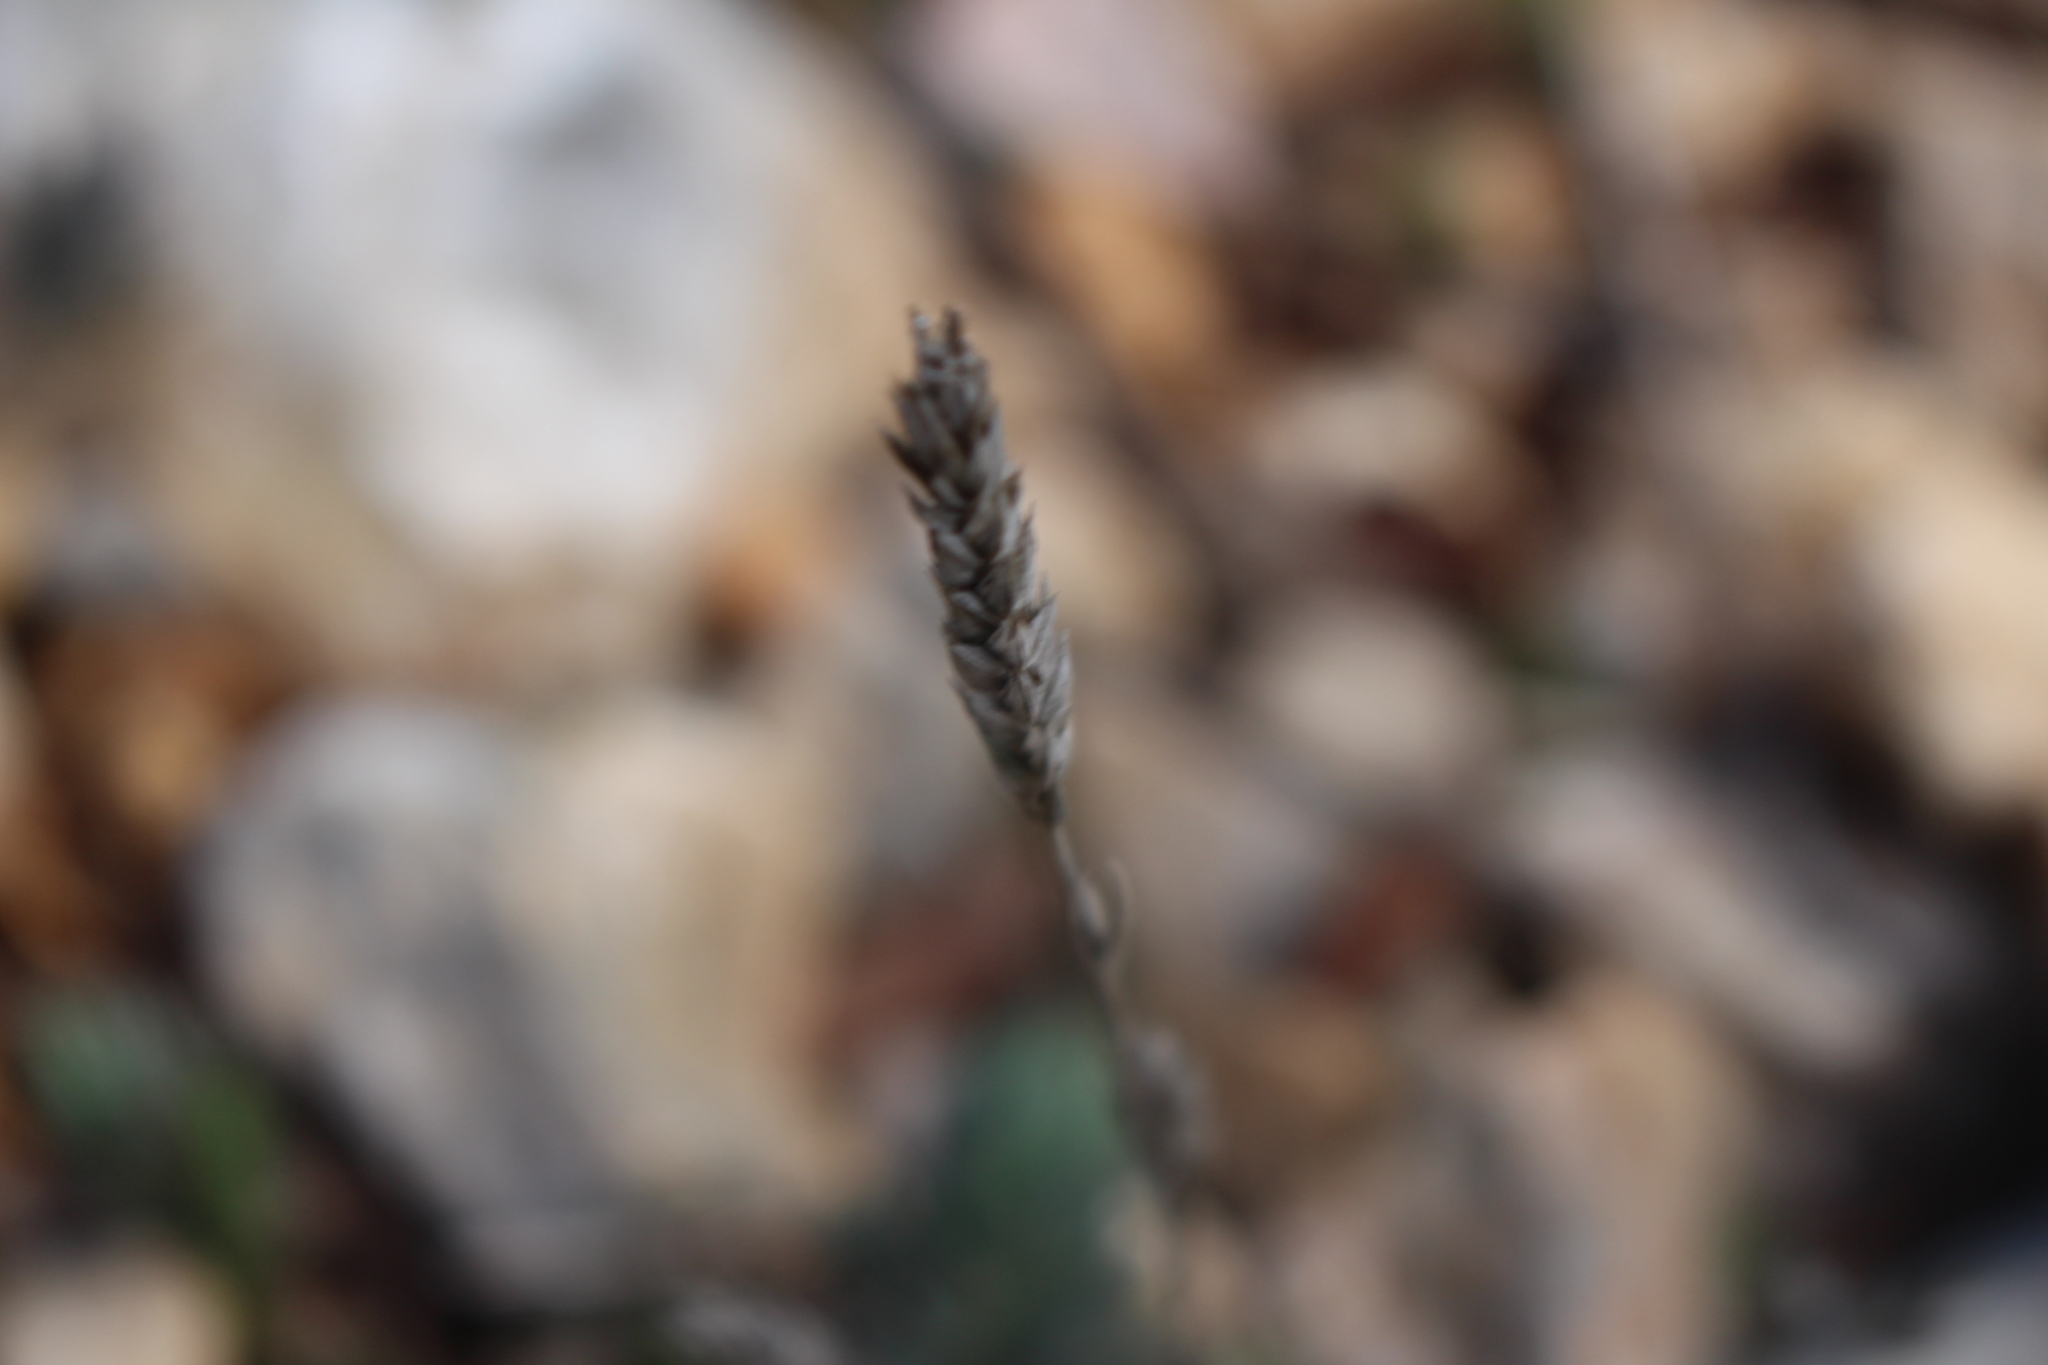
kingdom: Plantae
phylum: Tracheophyta
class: Magnoliopsida
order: Gentianales
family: Rubiaceae
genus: Crucianella
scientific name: Crucianella angustifolia
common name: Narrowleaf crucianella
